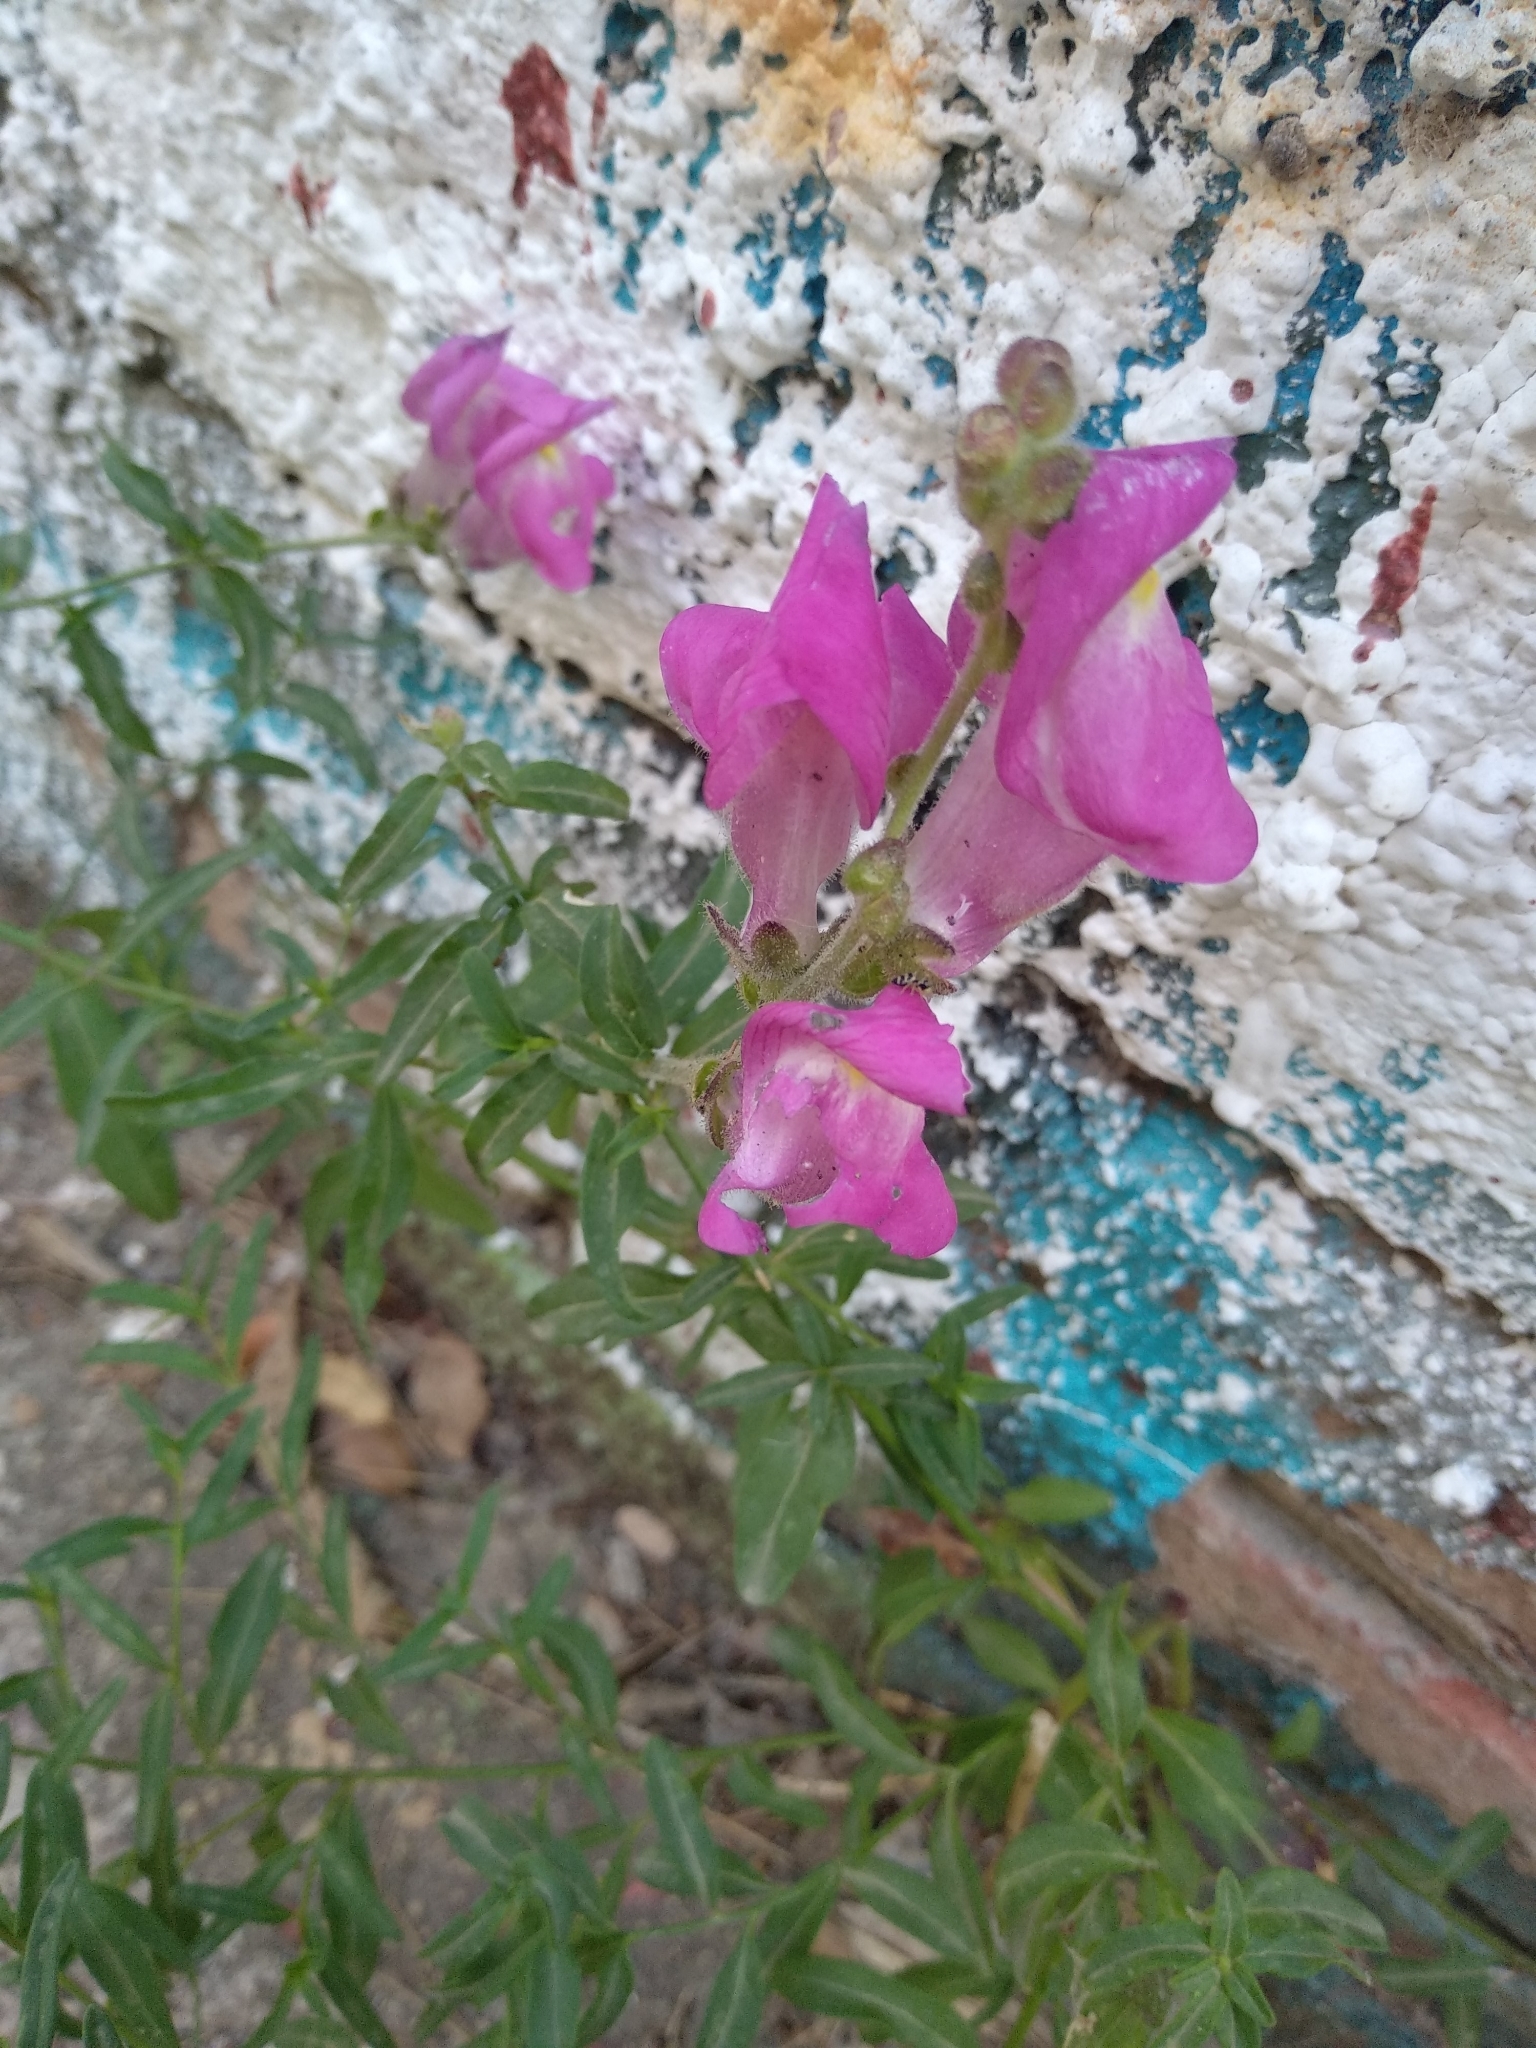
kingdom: Plantae
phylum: Tracheophyta
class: Magnoliopsida
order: Lamiales
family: Plantaginaceae
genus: Antirrhinum
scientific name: Antirrhinum majus
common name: Snapdragon
